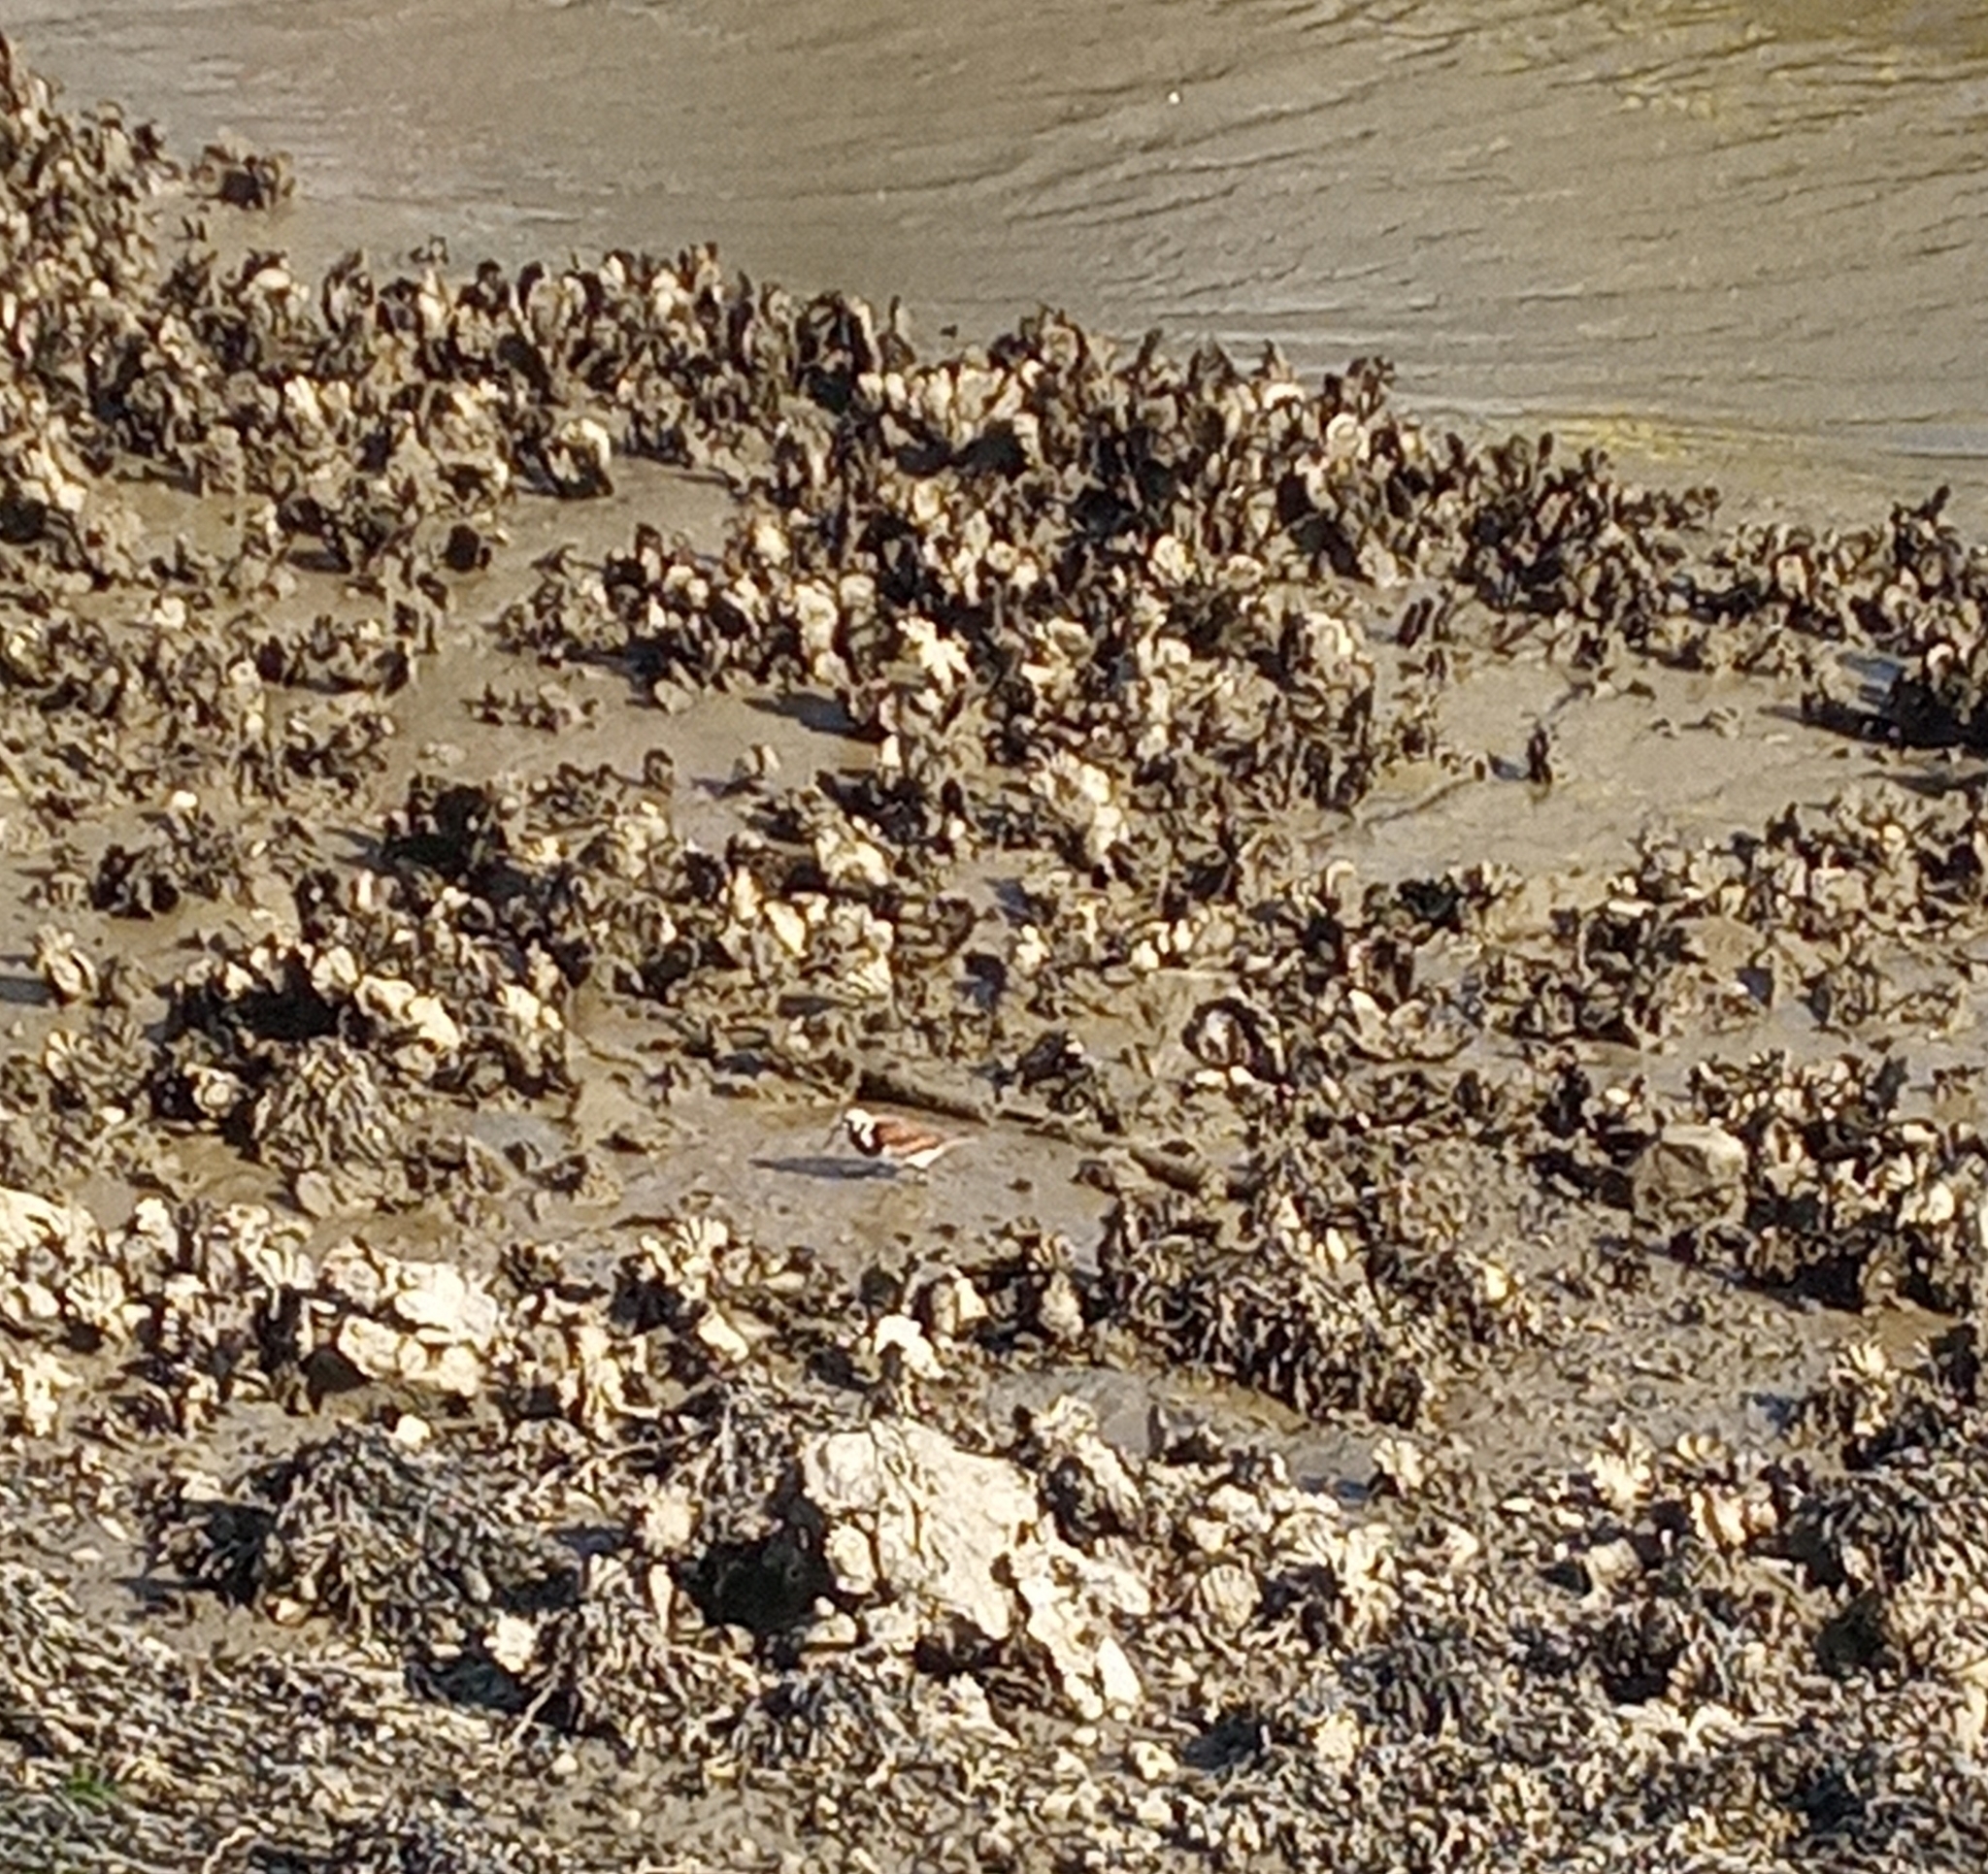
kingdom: Animalia
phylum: Chordata
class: Aves
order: Charadriiformes
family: Scolopacidae
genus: Arenaria
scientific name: Arenaria interpres
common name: Ruddy turnstone
